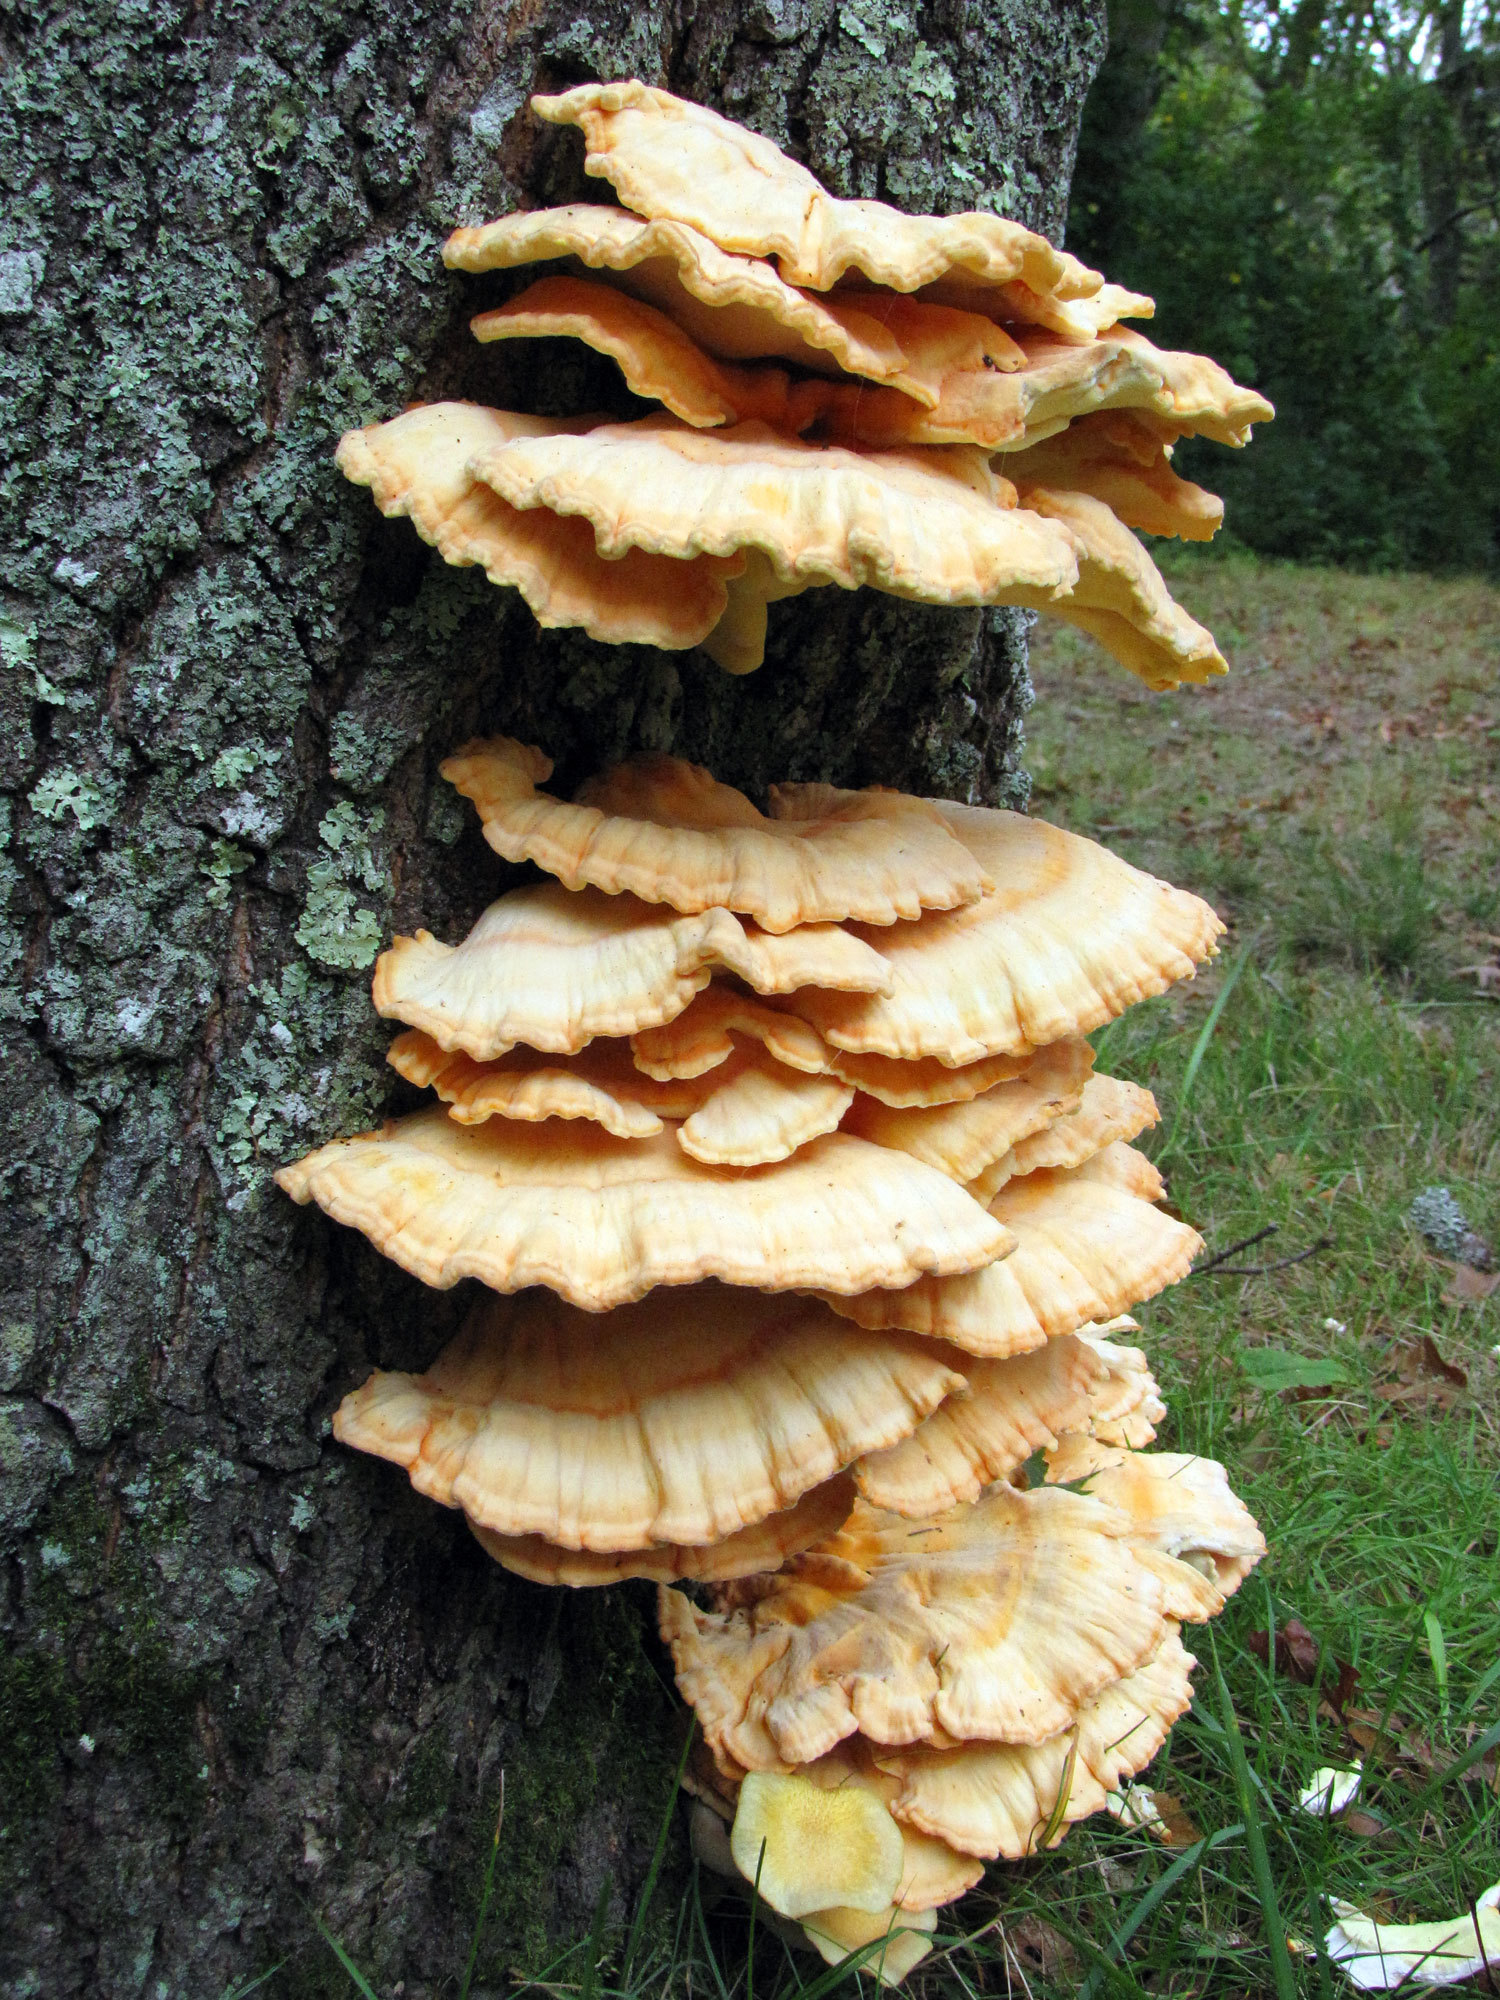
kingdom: Fungi
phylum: Basidiomycota
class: Agaricomycetes
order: Polyporales
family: Laetiporaceae
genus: Laetiporus
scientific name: Laetiporus sulphureus
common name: Chicken of the woods
